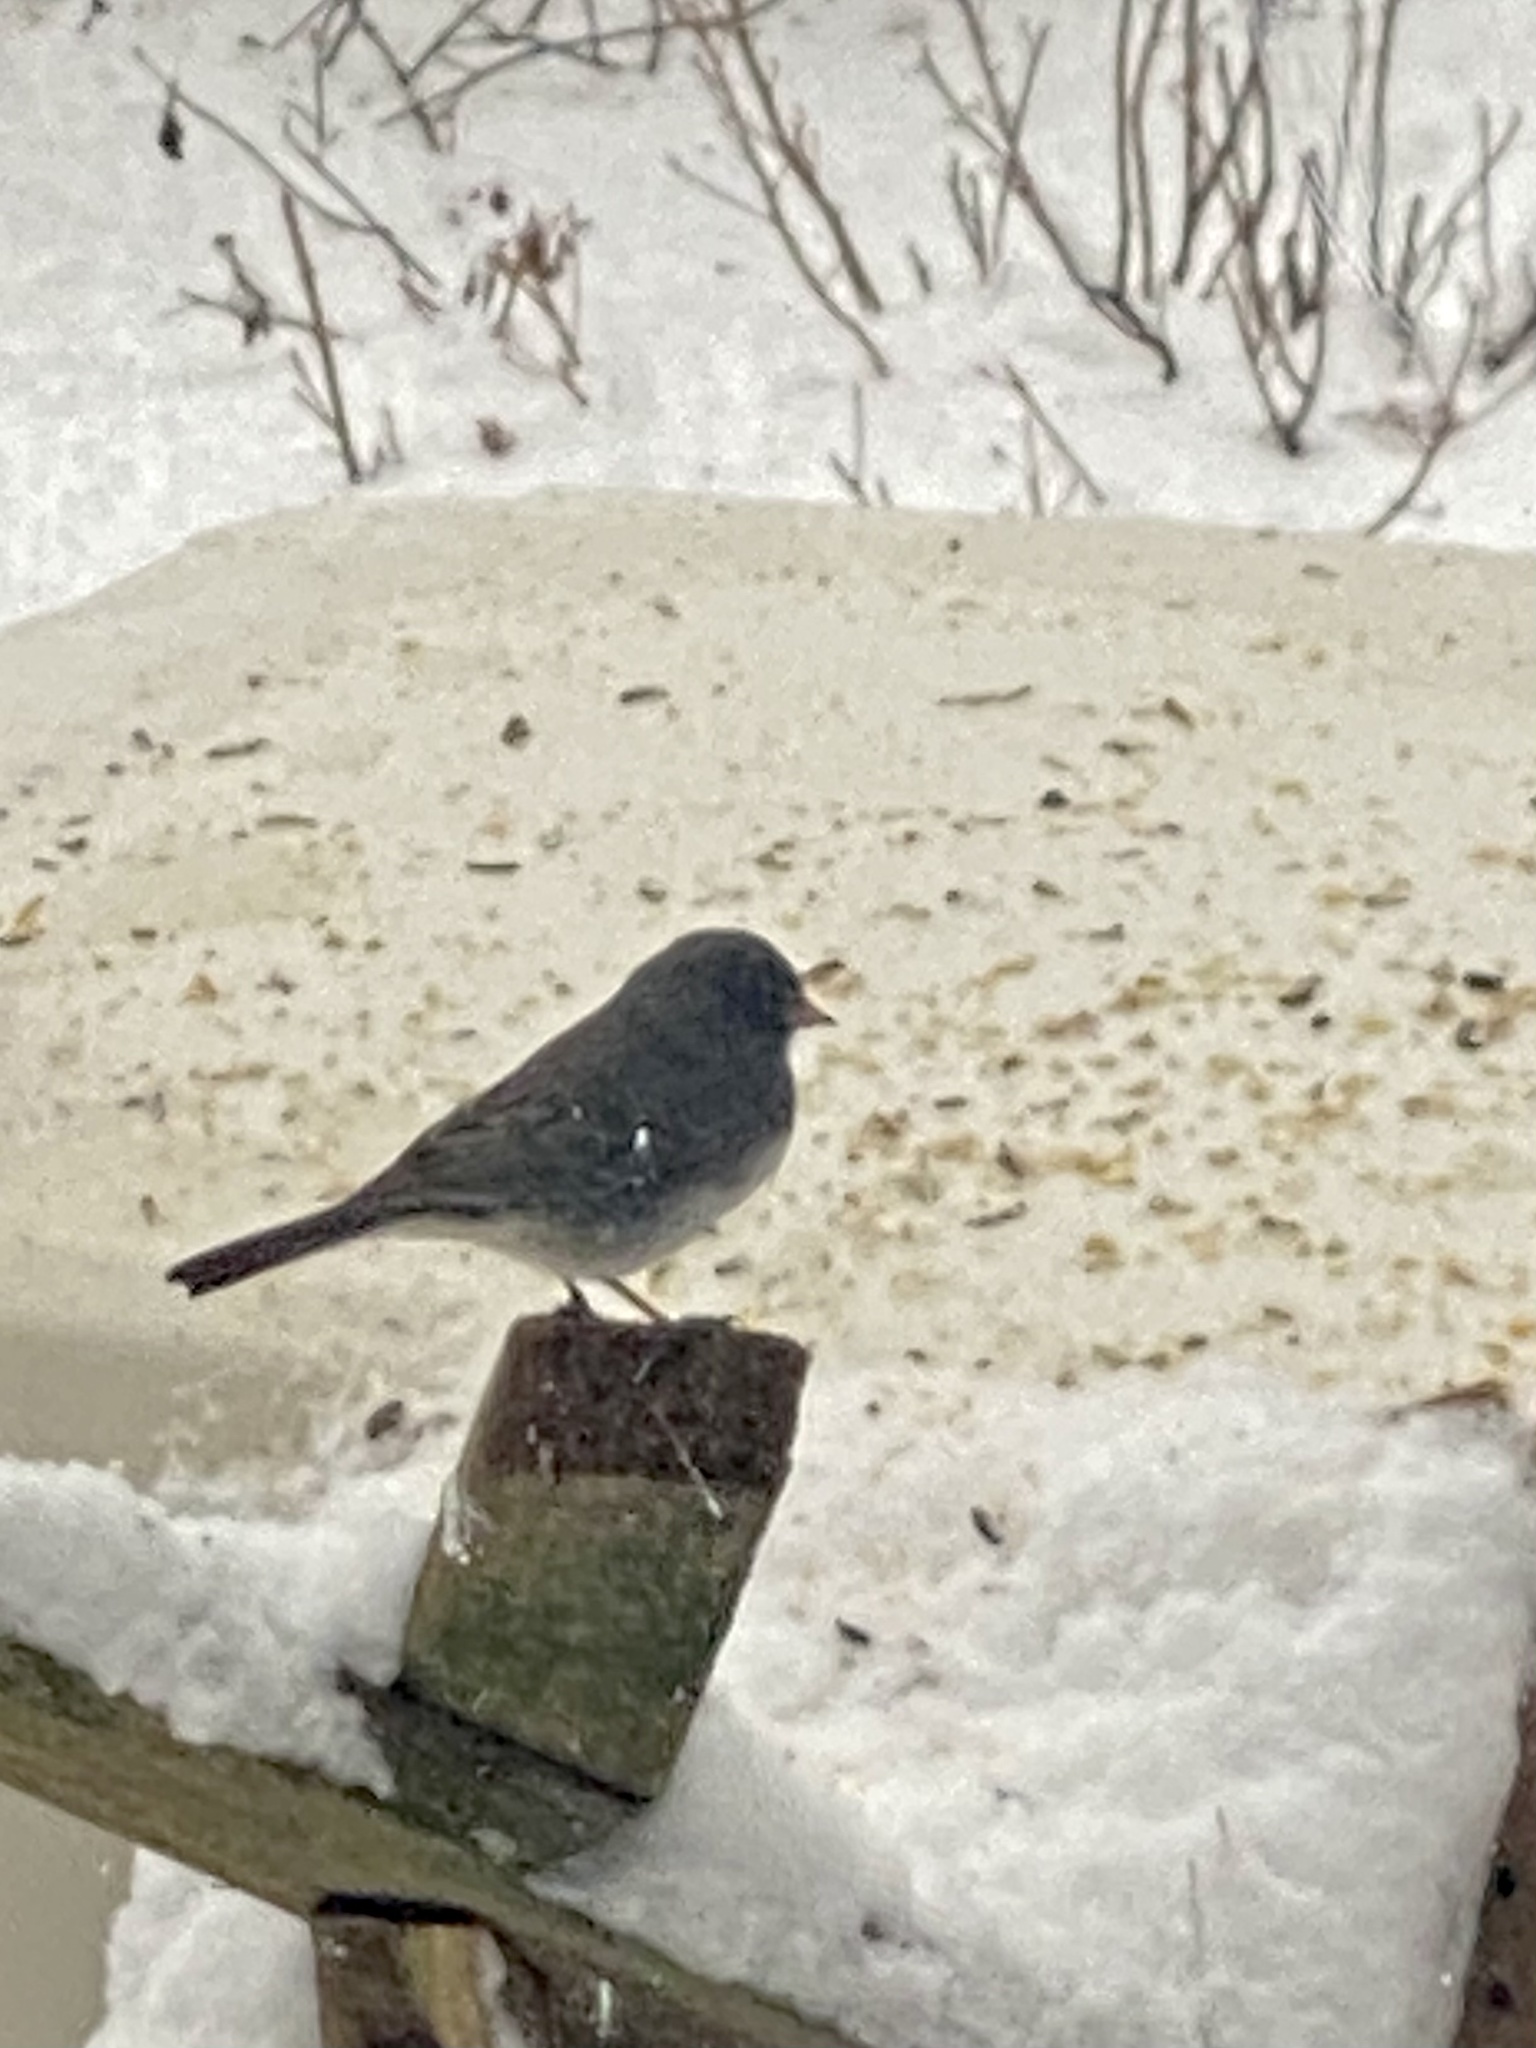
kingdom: Animalia
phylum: Chordata
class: Aves
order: Passeriformes
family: Passerellidae
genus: Junco
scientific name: Junco hyemalis
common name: Dark-eyed junco
